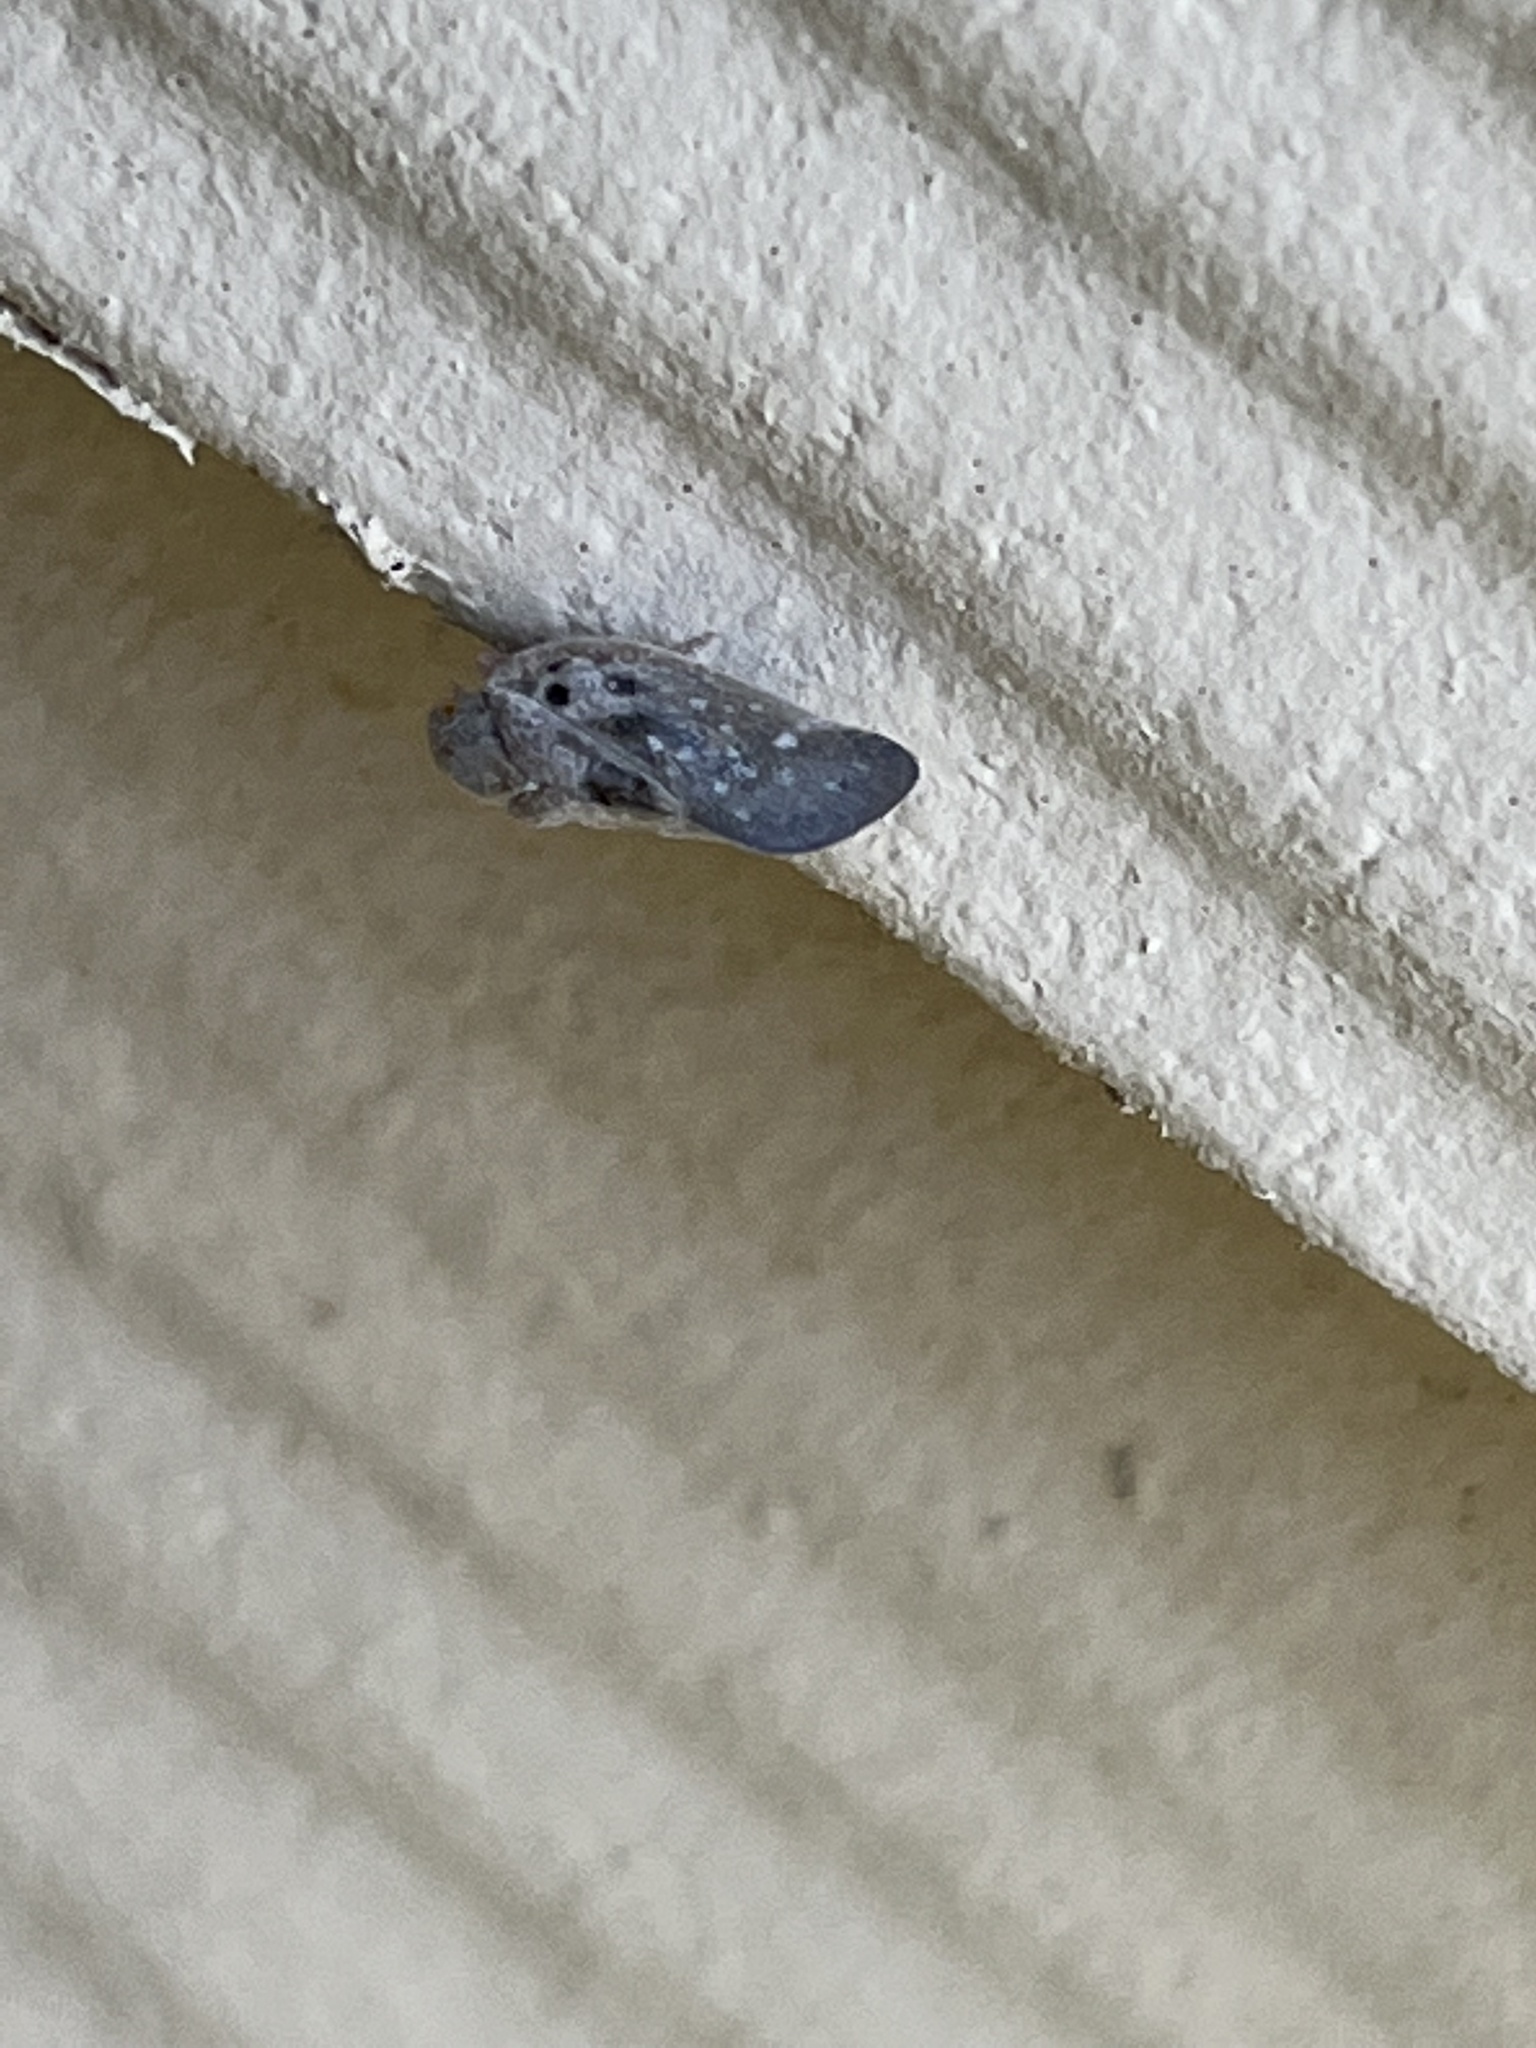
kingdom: Animalia
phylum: Arthropoda
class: Insecta
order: Hemiptera
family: Flatidae
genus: Metcalfa
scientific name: Metcalfa pruinosa
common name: Citrus flatid planthopper
